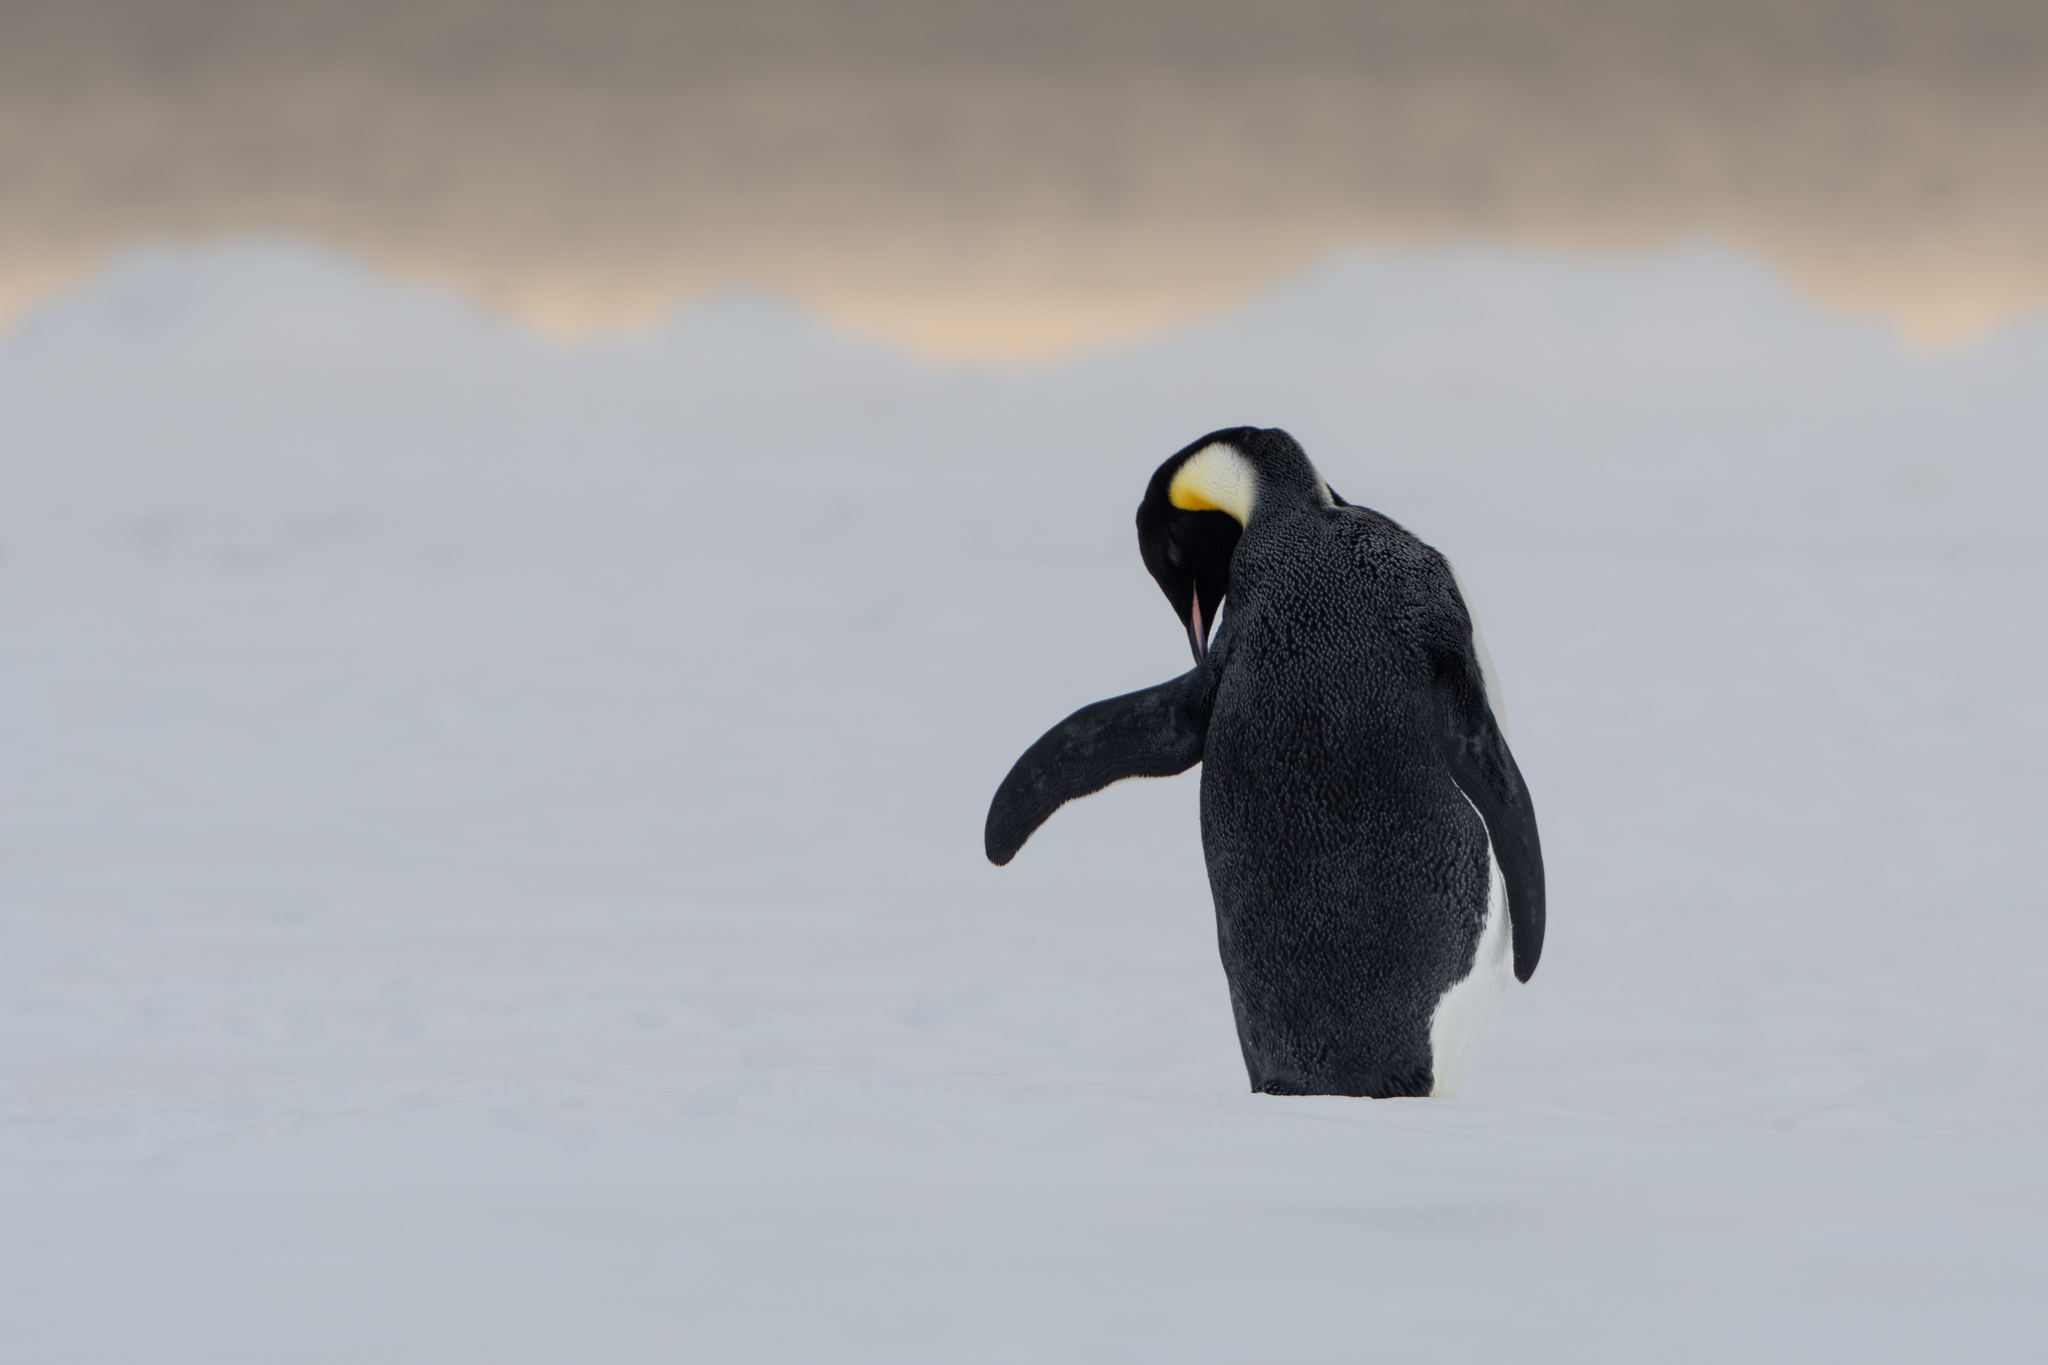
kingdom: Animalia
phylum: Chordata
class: Aves
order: Sphenisciformes
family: Spheniscidae
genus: Aptenodytes
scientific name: Aptenodytes forsteri
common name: Emperor penguin
